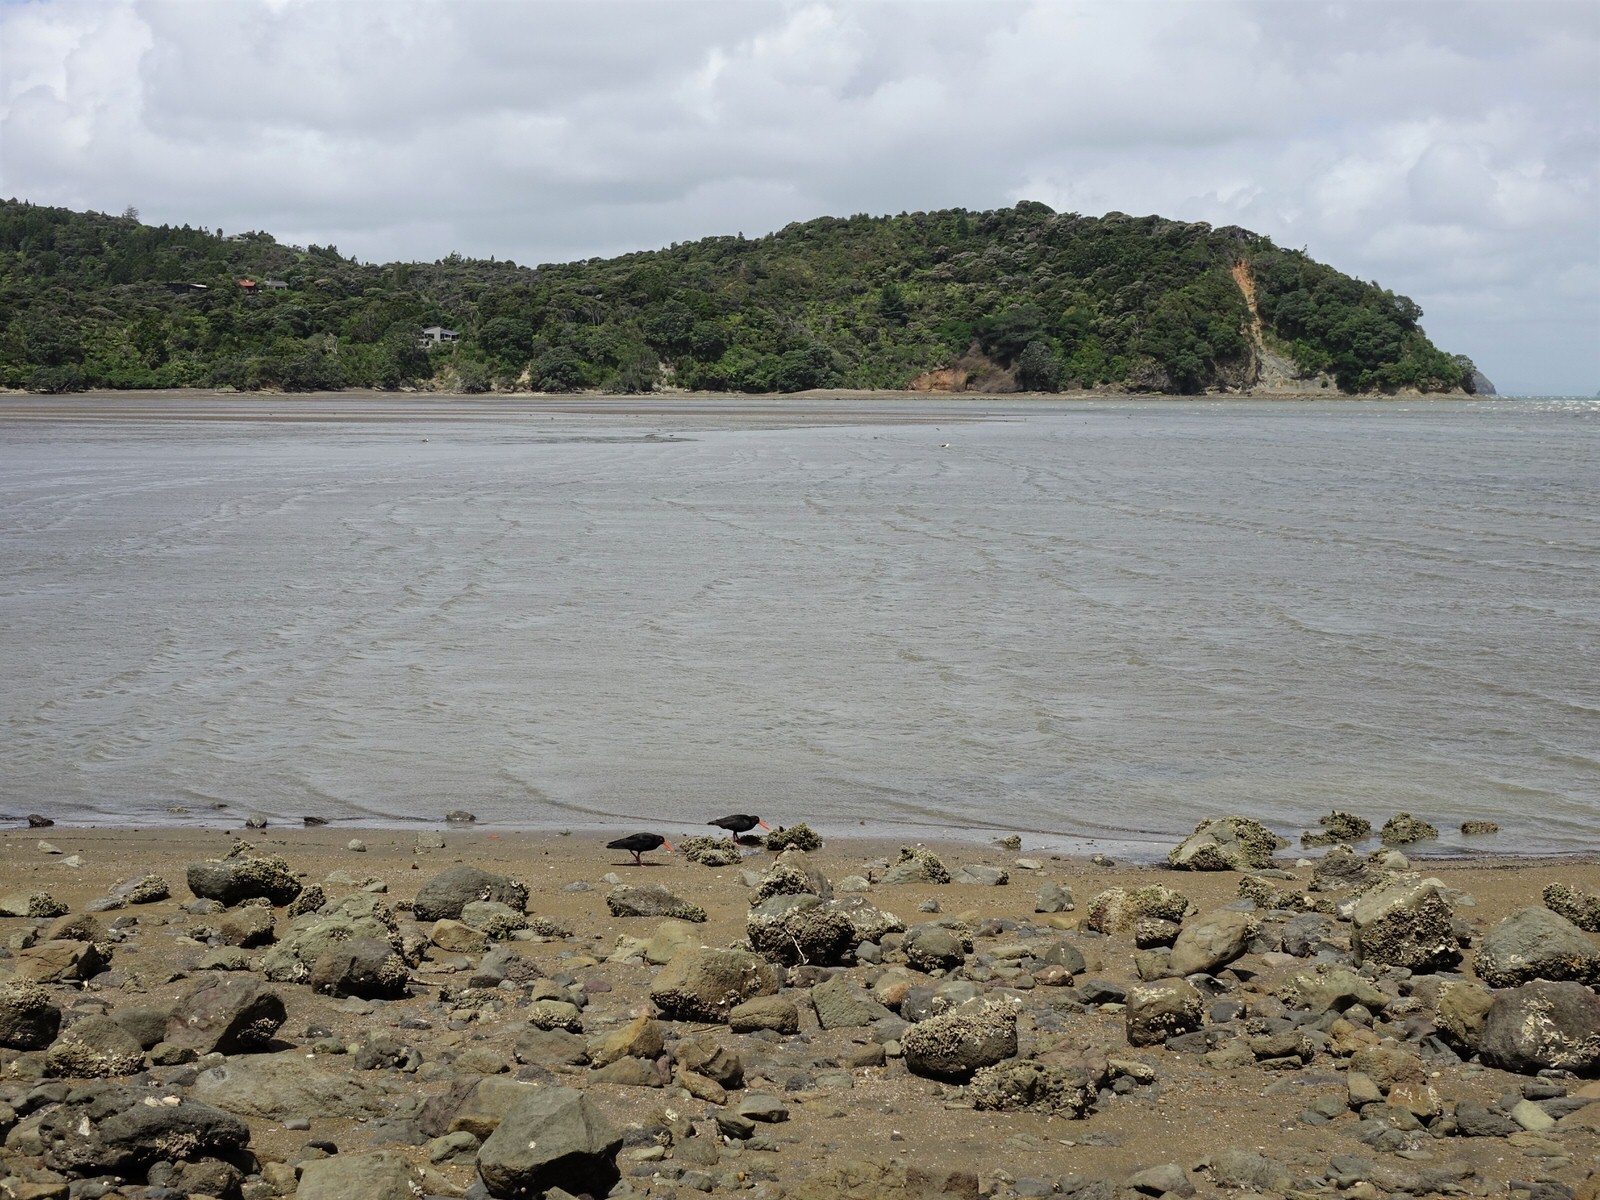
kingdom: Animalia
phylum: Chordata
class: Aves
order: Charadriiformes
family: Haematopodidae
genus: Haematopus
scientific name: Haematopus unicolor
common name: Variable oystercatcher
